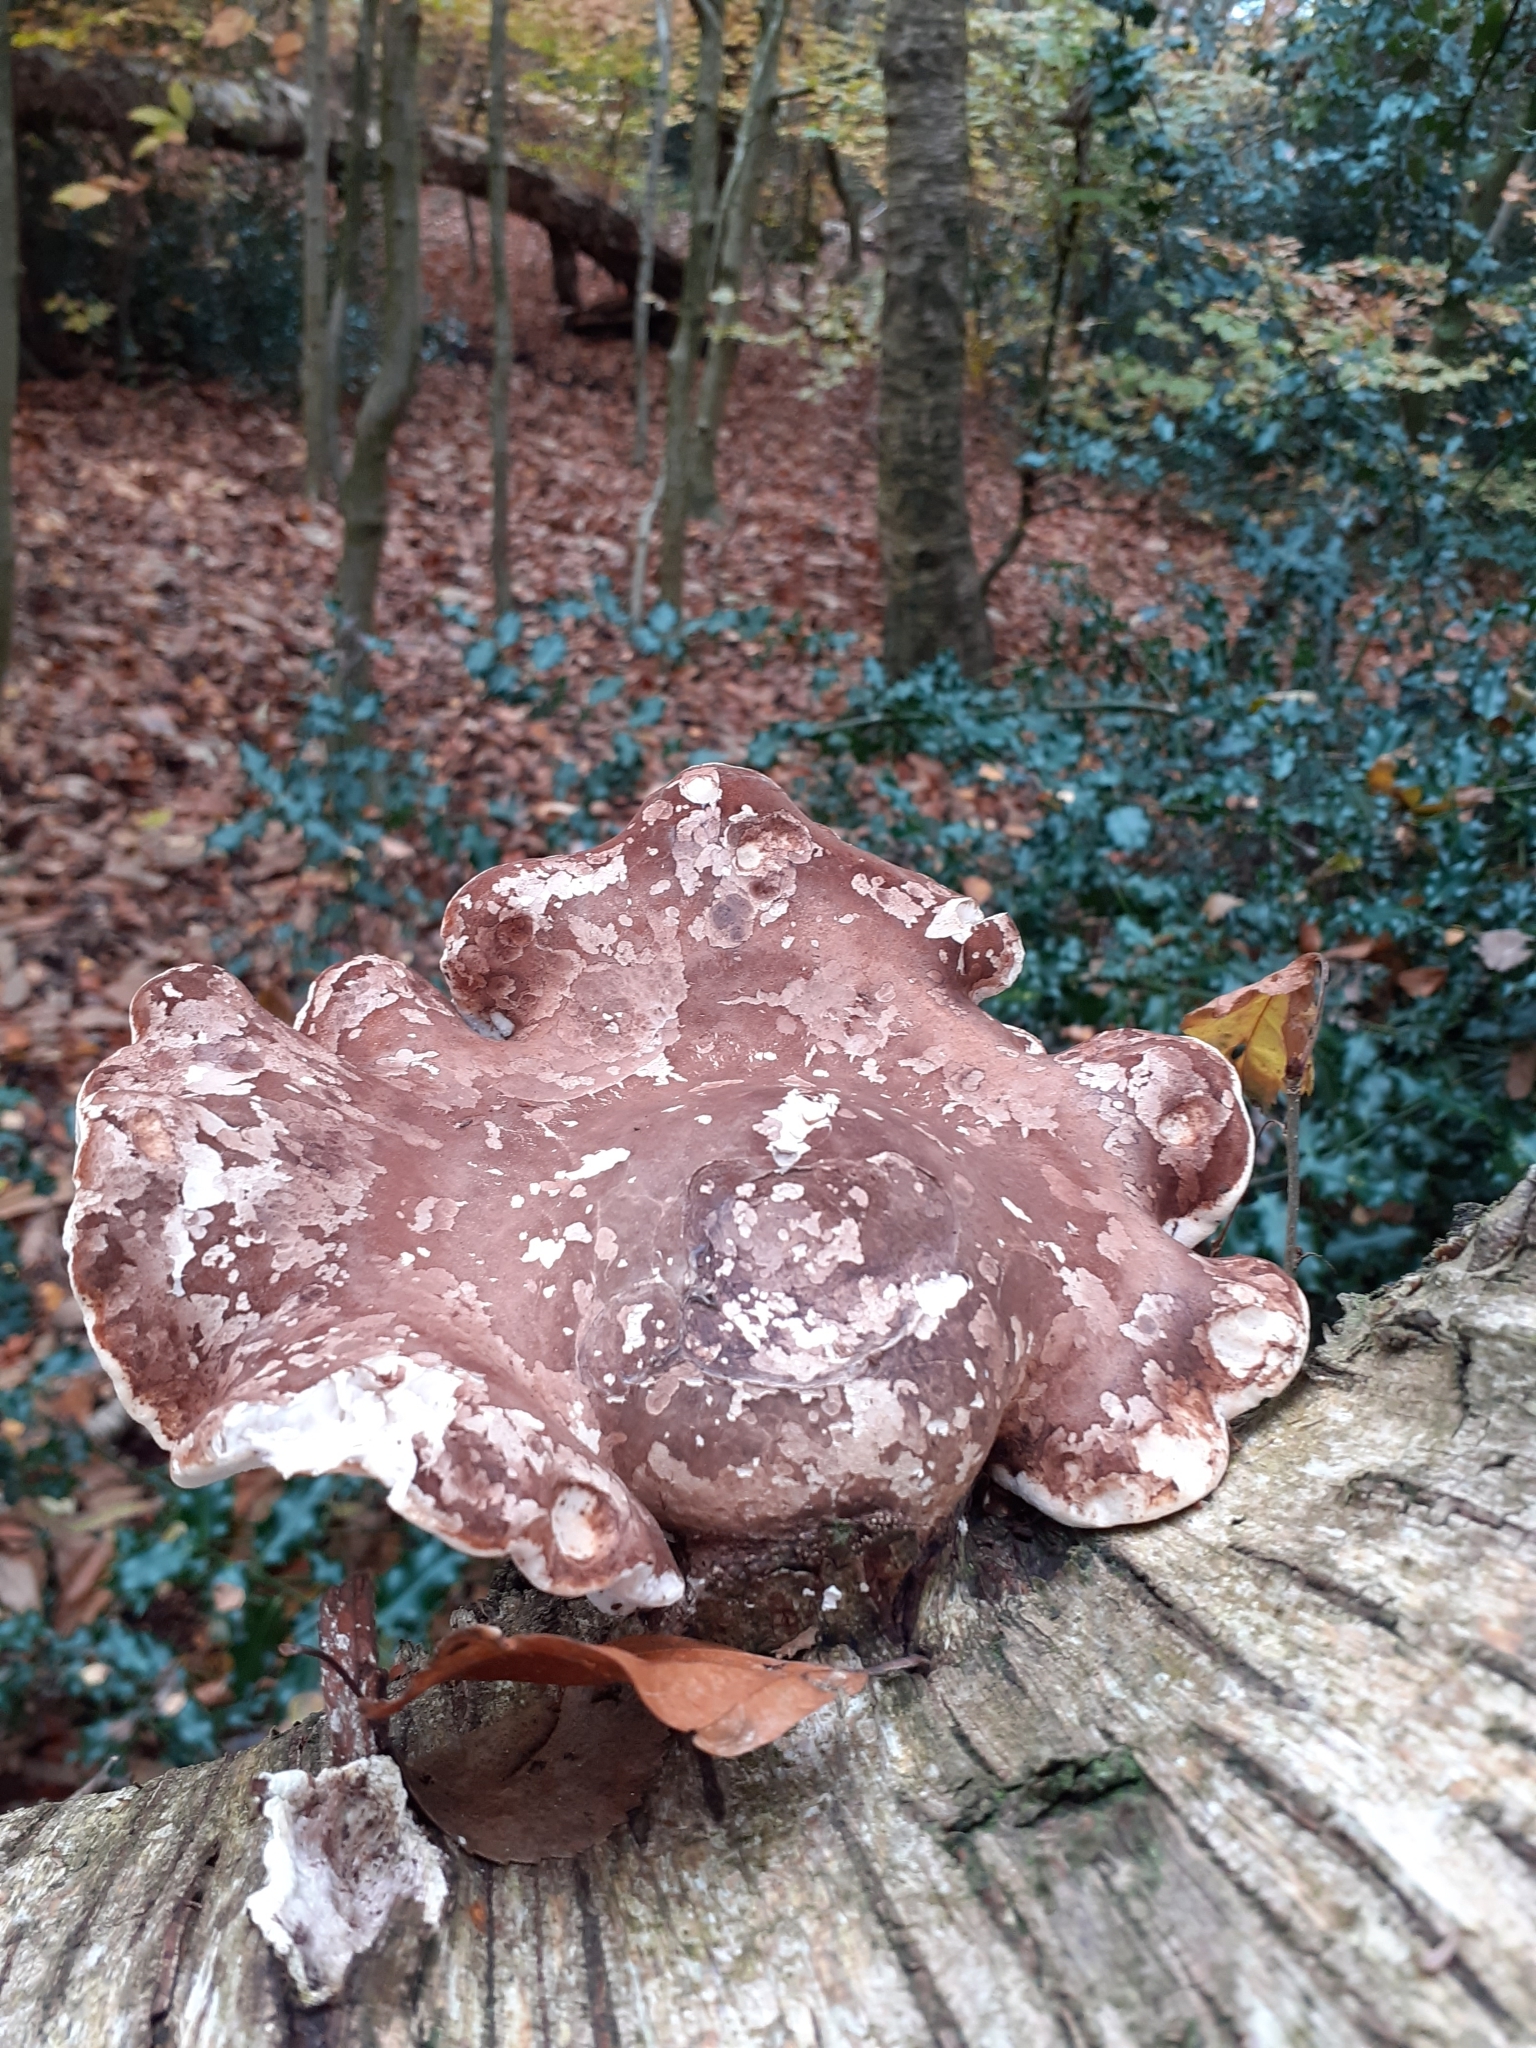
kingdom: Fungi
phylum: Basidiomycota
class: Agaricomycetes
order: Polyporales
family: Fomitopsidaceae
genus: Fomitopsis
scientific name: Fomitopsis betulina
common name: Birch polypore
